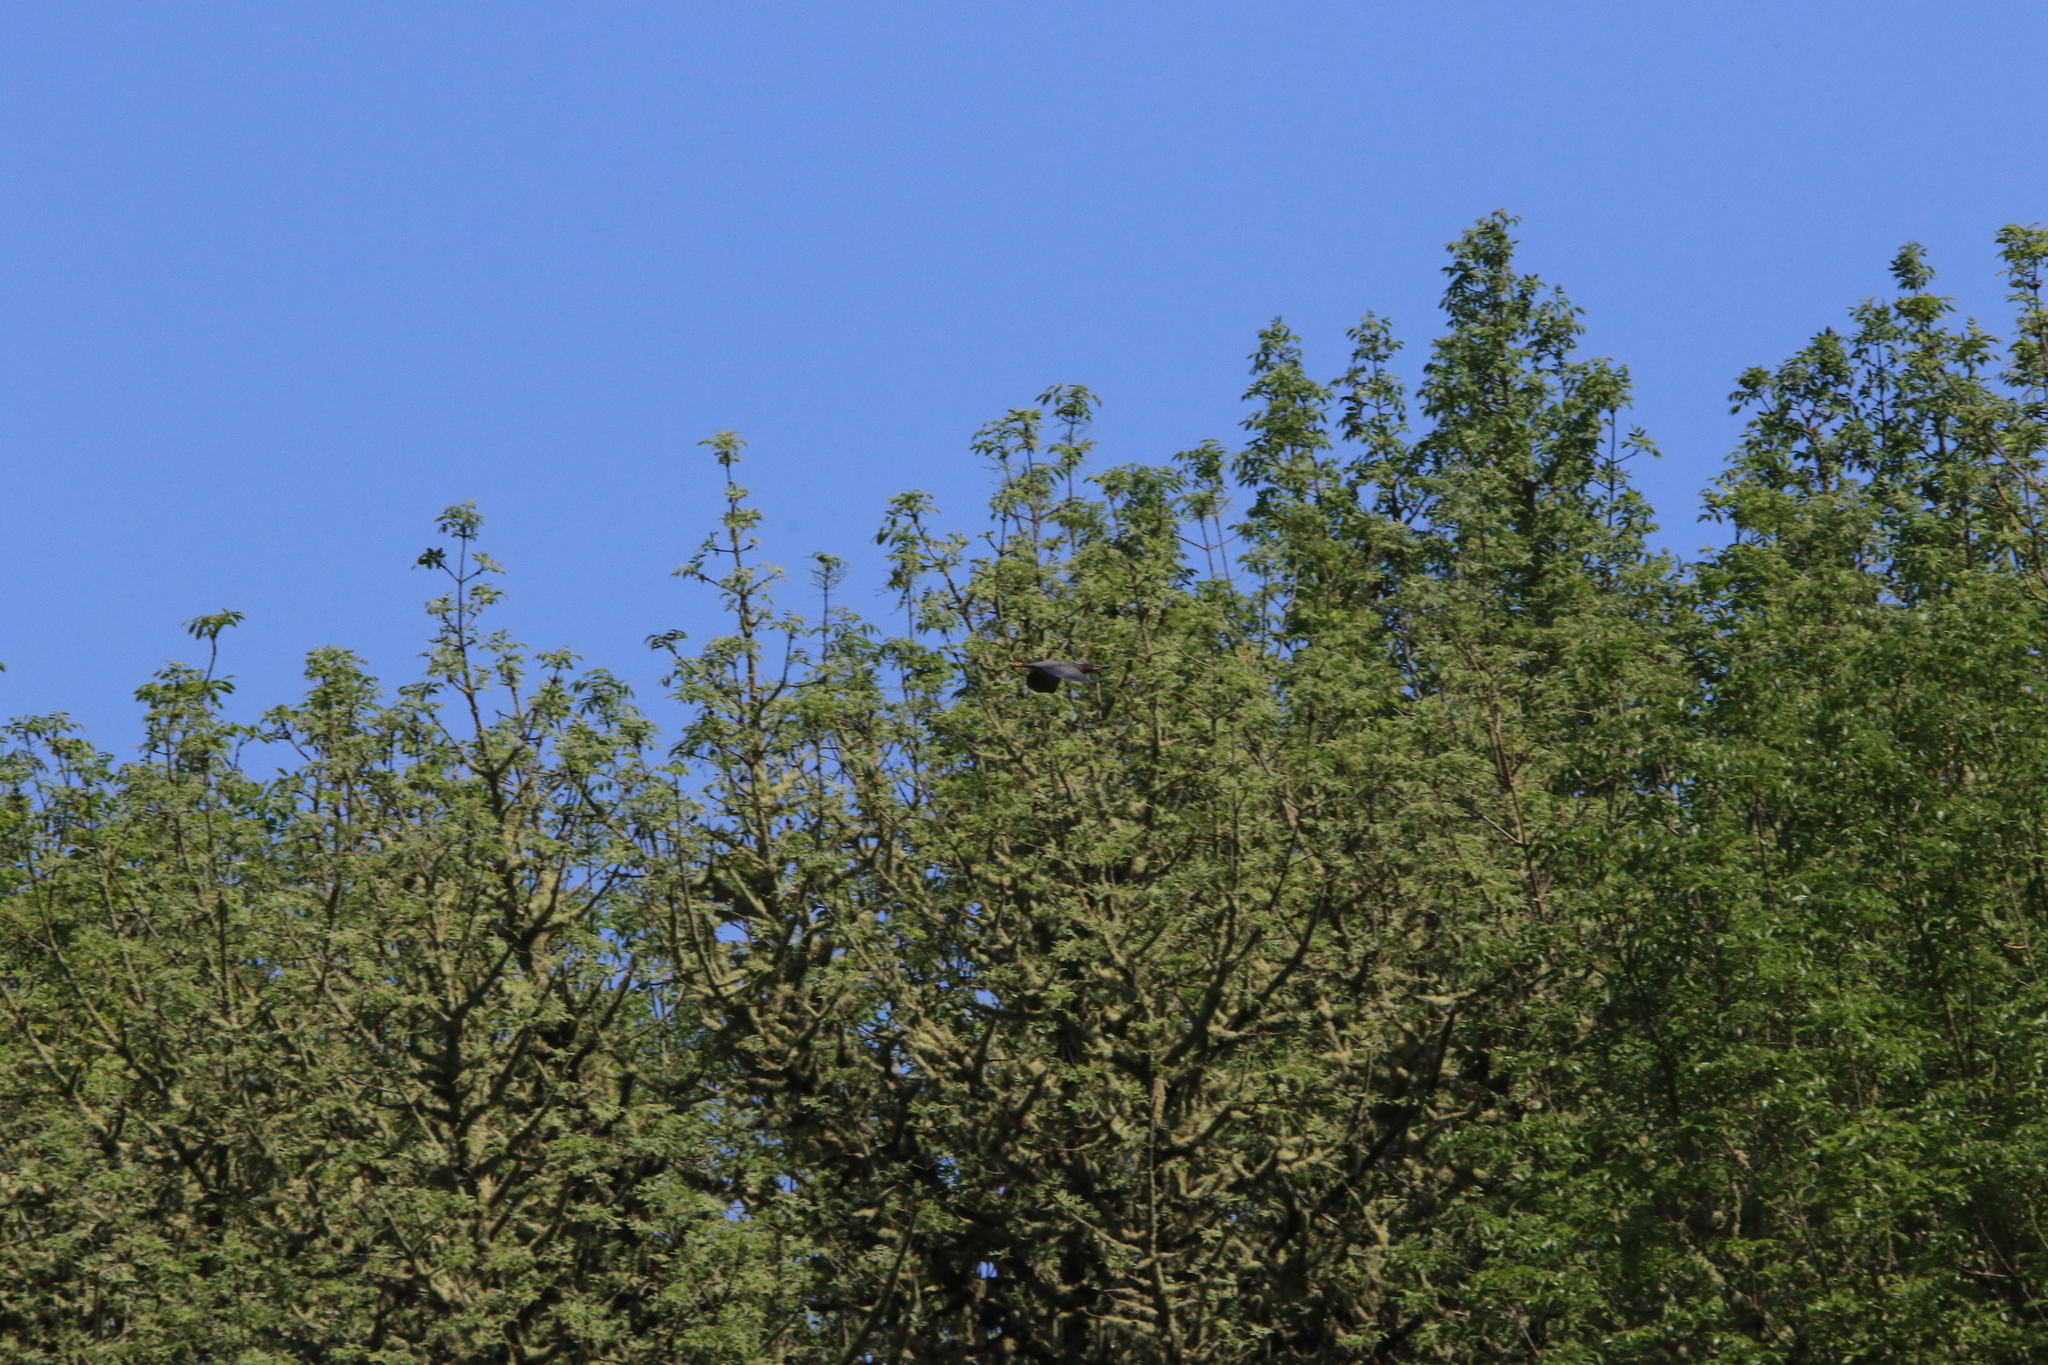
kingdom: Animalia
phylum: Chordata
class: Aves
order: Pelecaniformes
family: Ardeidae
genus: Butorides
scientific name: Butorides virescens
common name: Green heron
